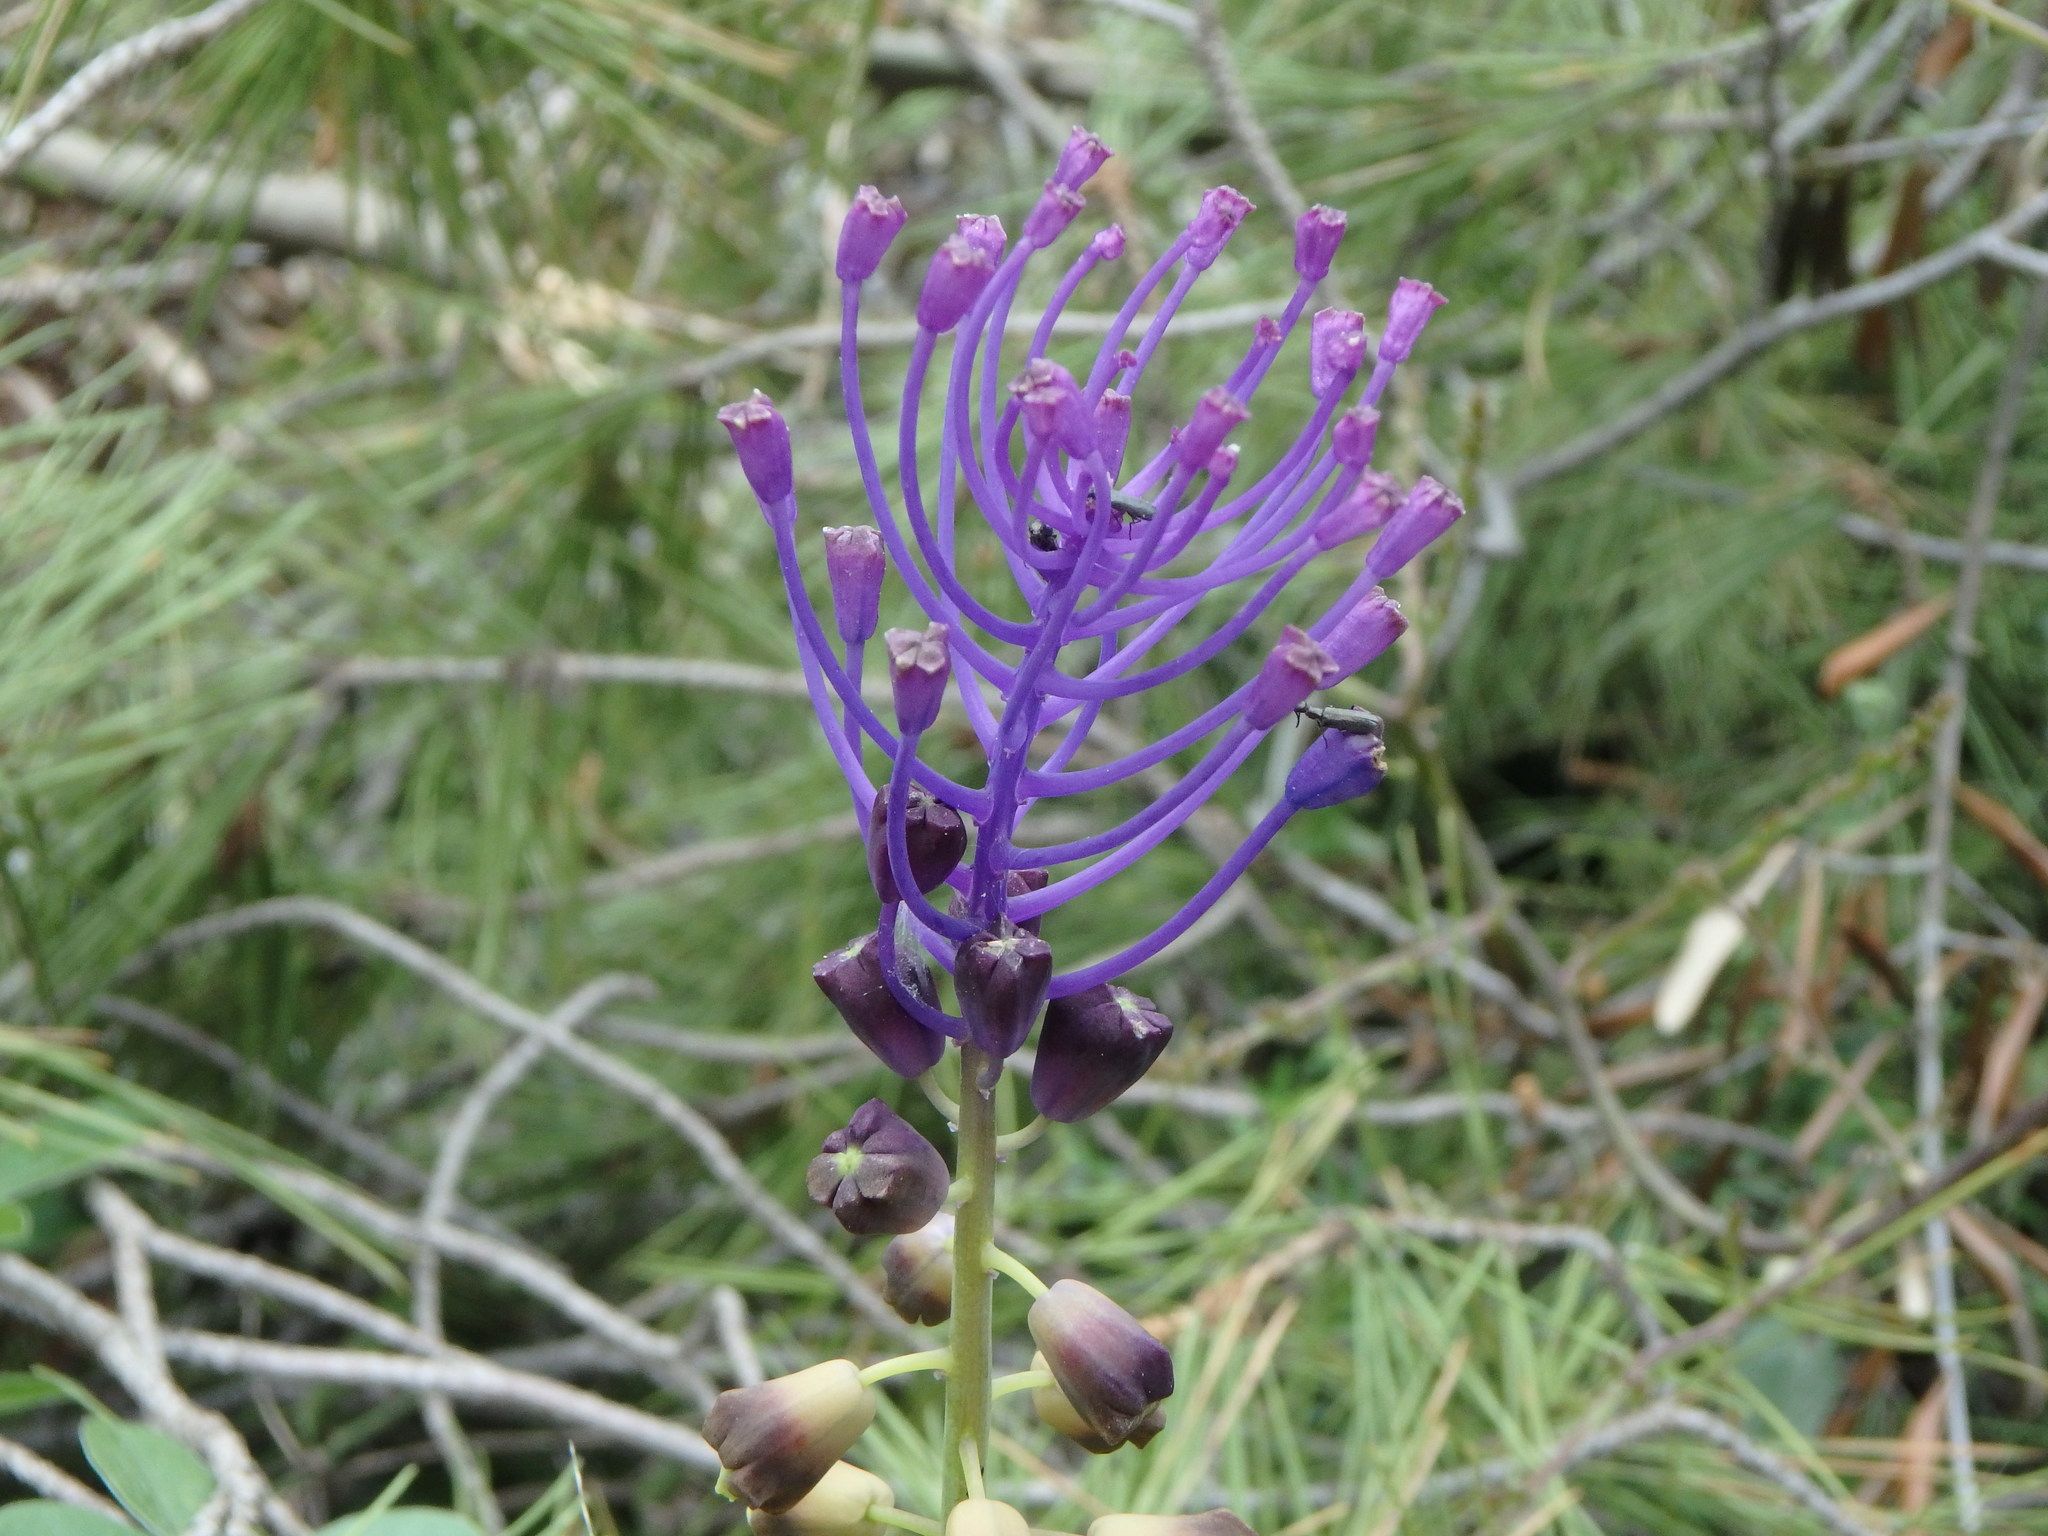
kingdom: Plantae
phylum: Tracheophyta
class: Liliopsida
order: Asparagales
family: Asparagaceae
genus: Muscari
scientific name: Muscari comosum
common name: Tassel hyacinth
